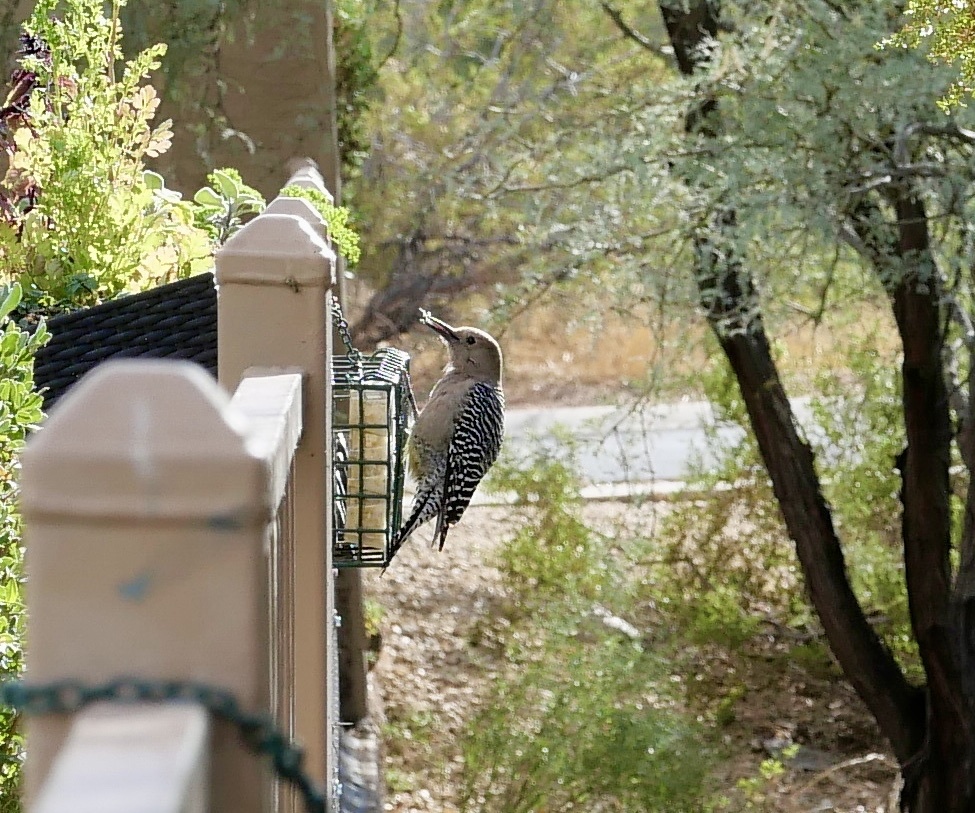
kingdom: Animalia
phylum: Chordata
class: Aves
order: Piciformes
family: Picidae
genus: Melanerpes
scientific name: Melanerpes uropygialis
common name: Gila woodpecker
